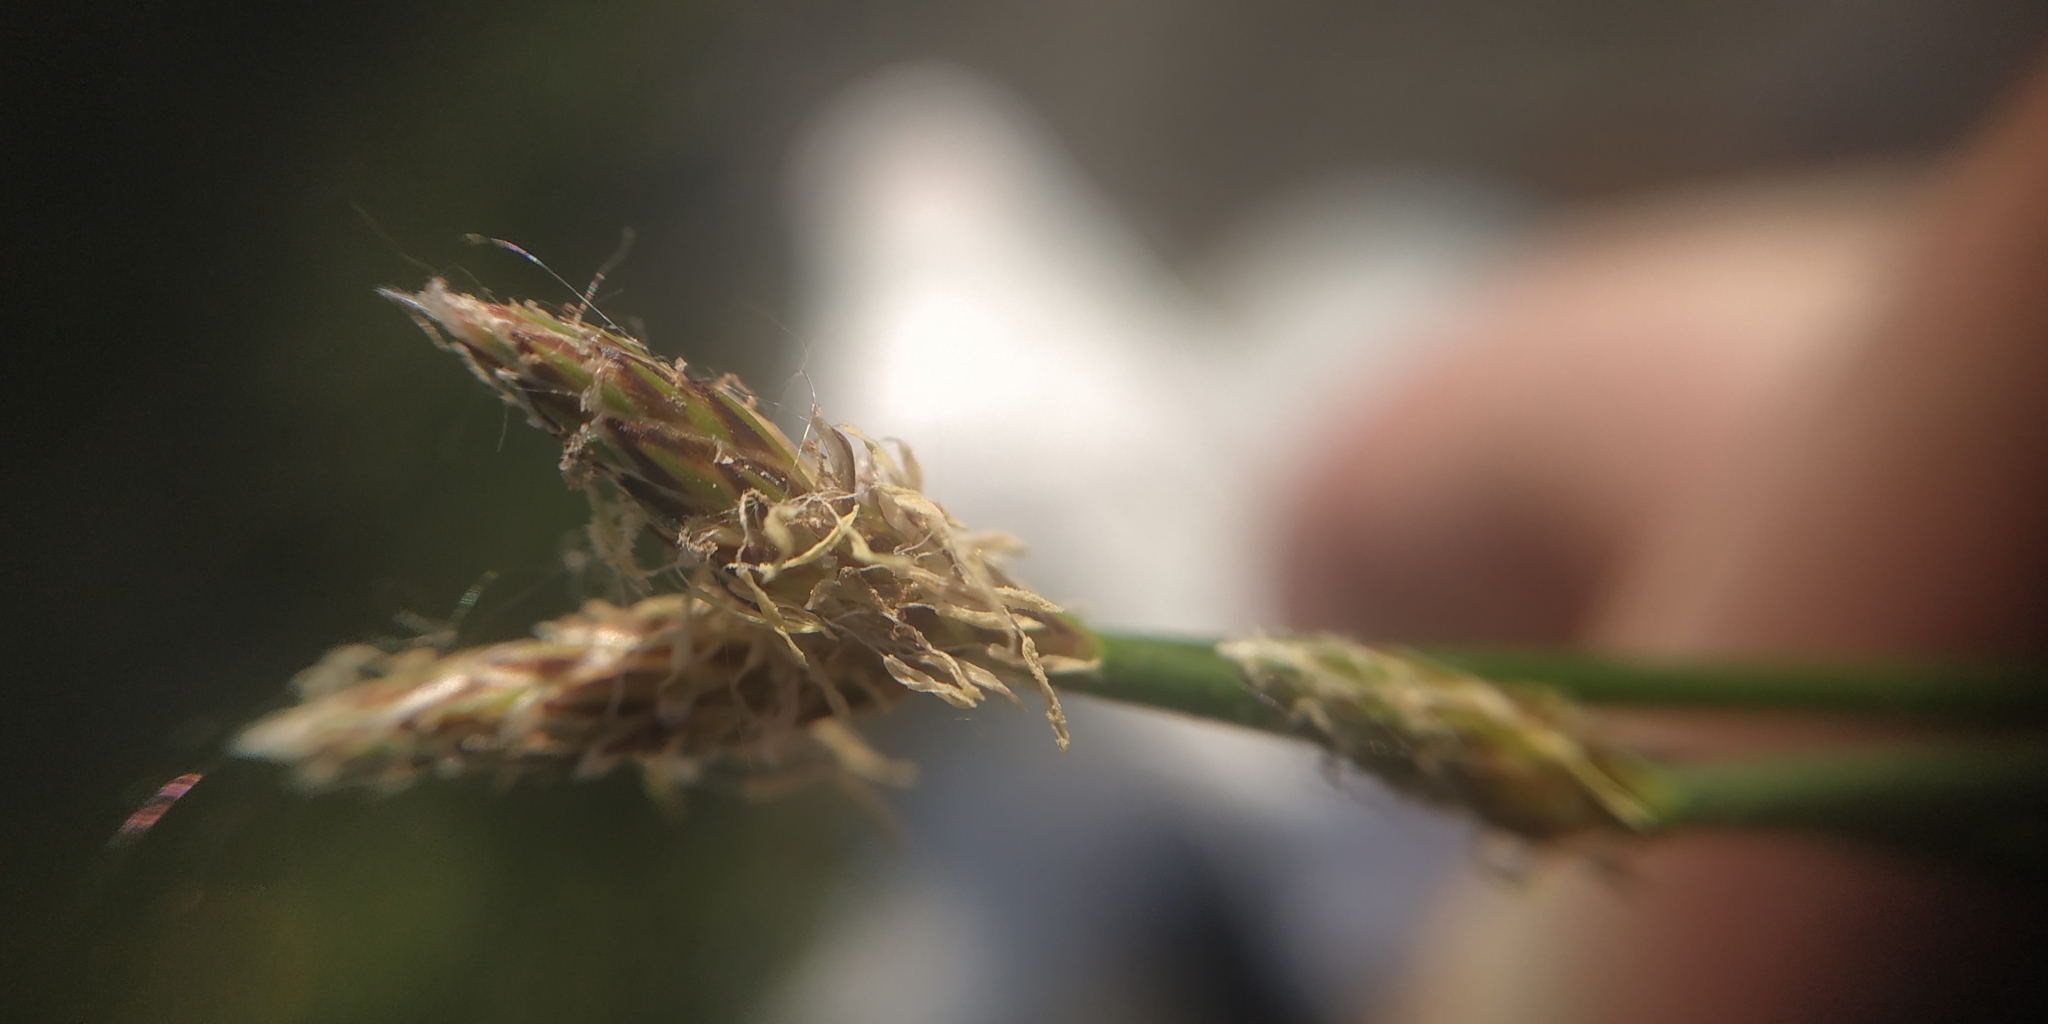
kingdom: Plantae
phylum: Tracheophyta
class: Liliopsida
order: Poales
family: Cyperaceae
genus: Eleocharis
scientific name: Eleocharis palustris
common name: Common spike-rush
